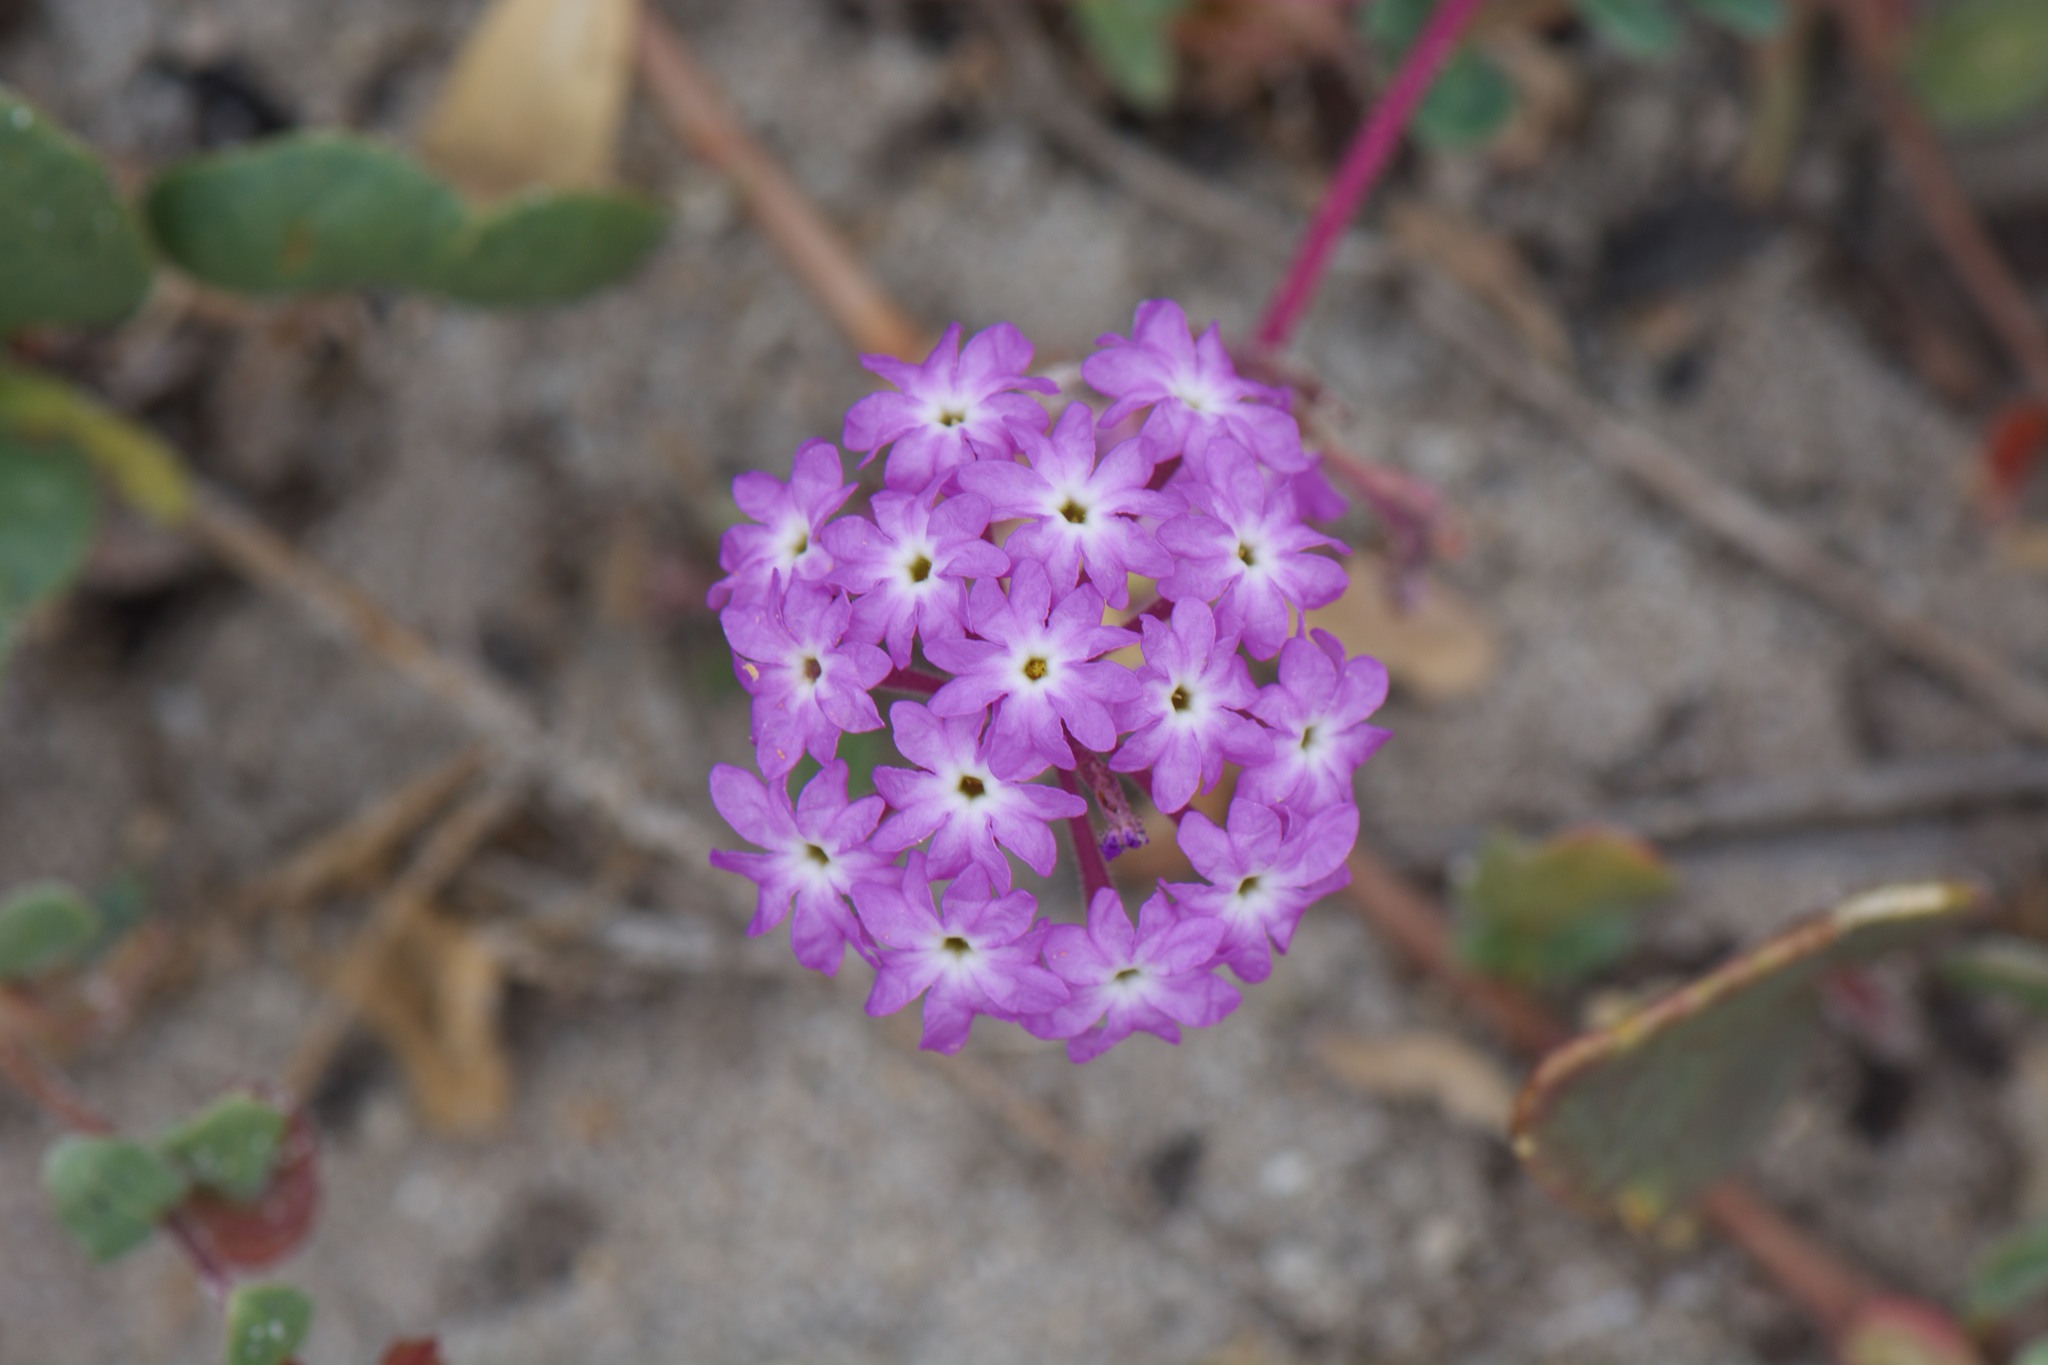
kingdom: Plantae
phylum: Tracheophyta
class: Magnoliopsida
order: Caryophyllales
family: Nyctaginaceae
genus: Abronia
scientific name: Abronia umbellata
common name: Sand-verbena
